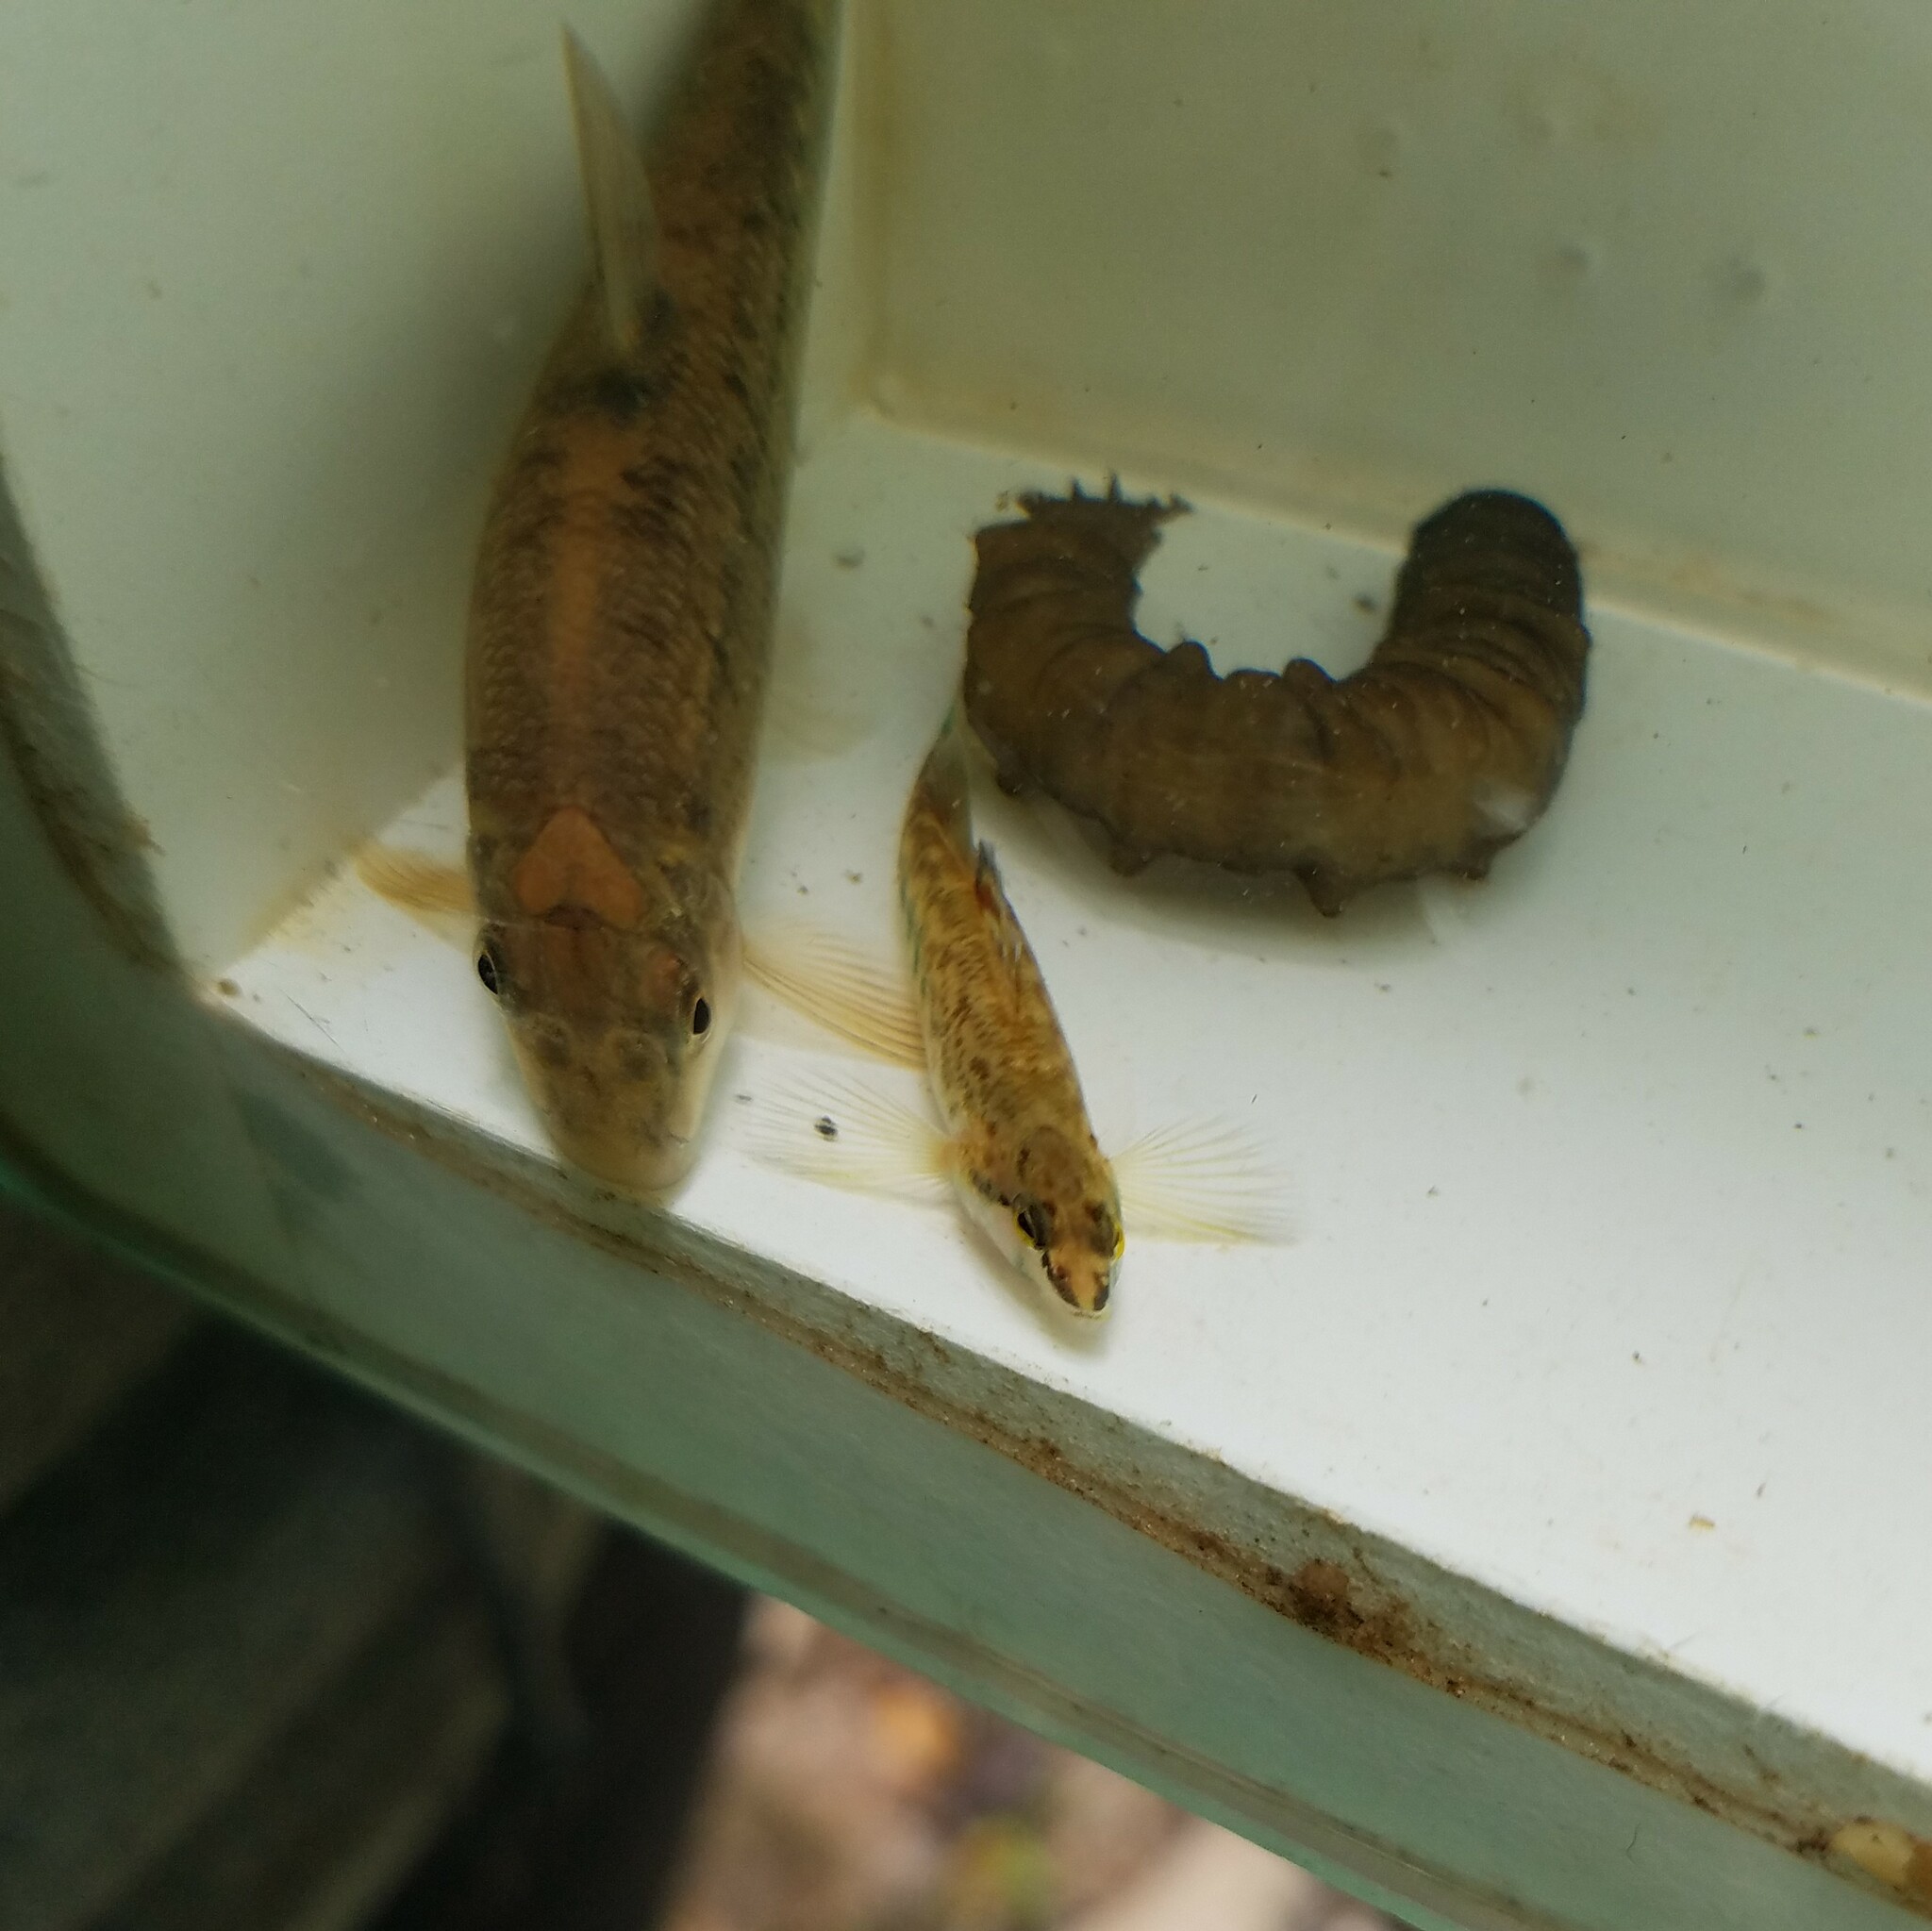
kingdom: Animalia
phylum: Chordata
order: Cypriniformes
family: Cyprinidae
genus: Campostoma
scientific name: Campostoma oligolepis
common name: Largescale stoneroller
